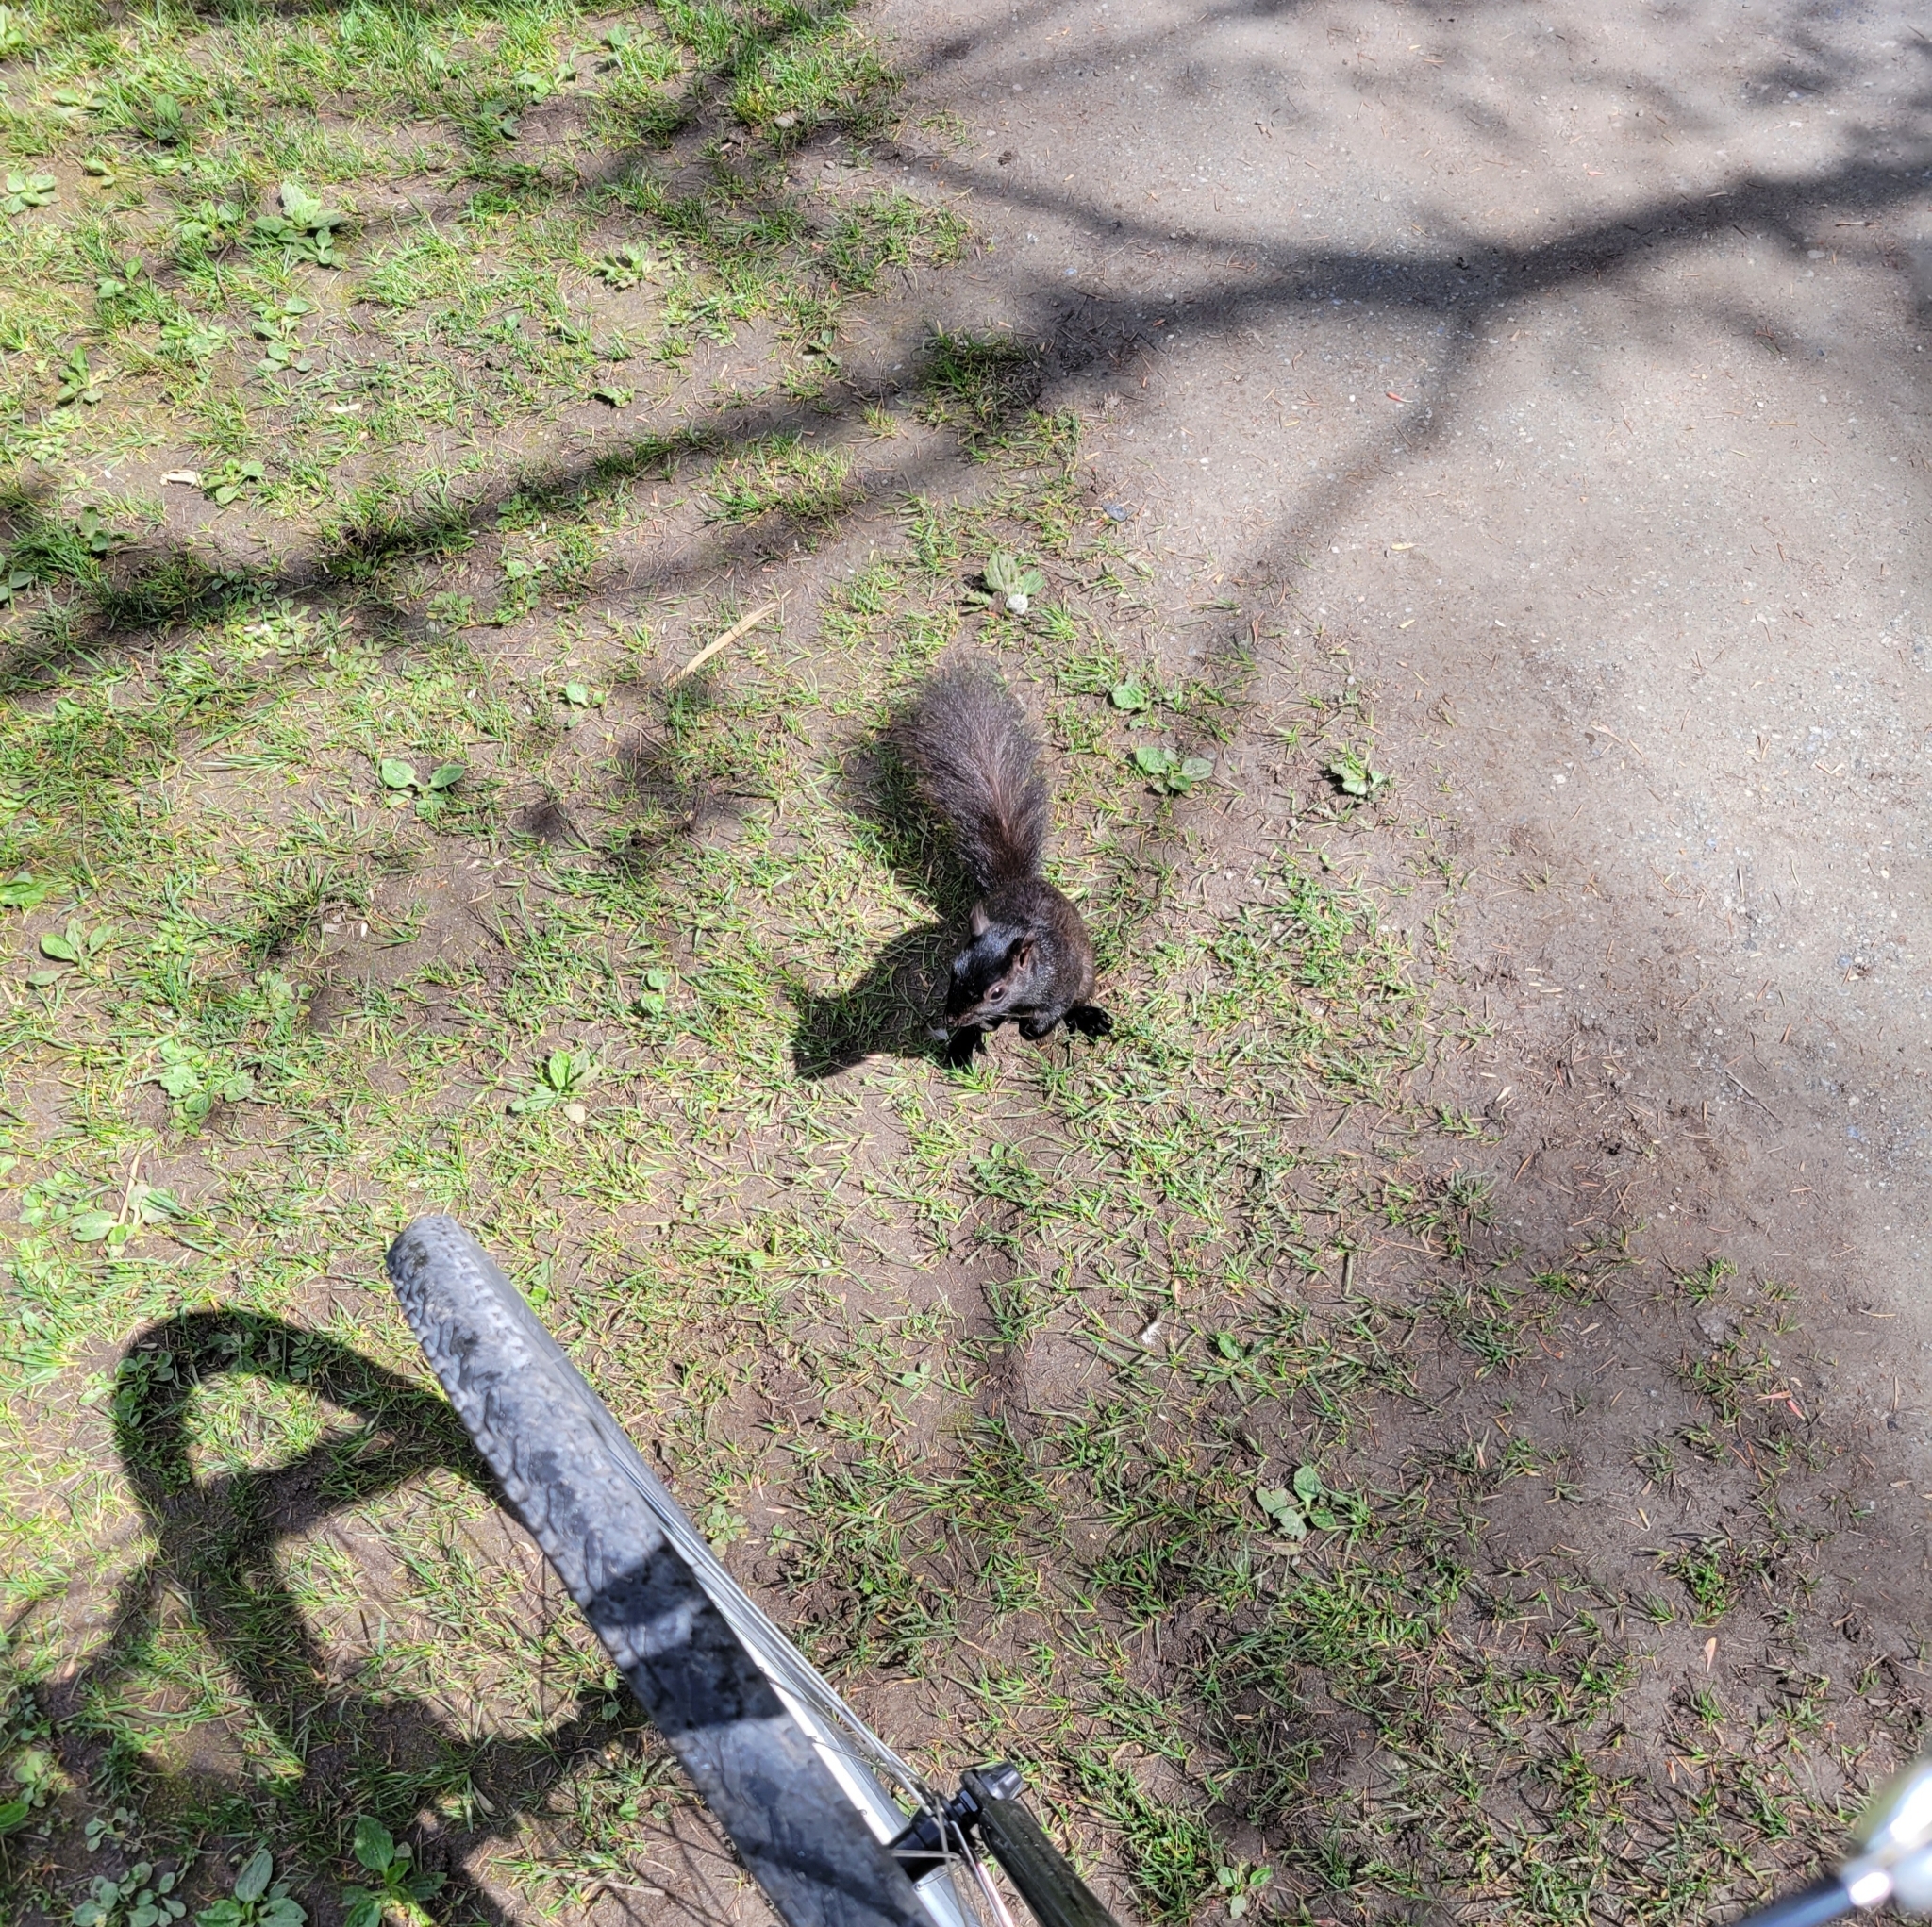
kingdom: Animalia
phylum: Chordata
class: Mammalia
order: Rodentia
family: Sciuridae
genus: Sciurus
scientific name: Sciurus carolinensis
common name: Eastern gray squirrel
